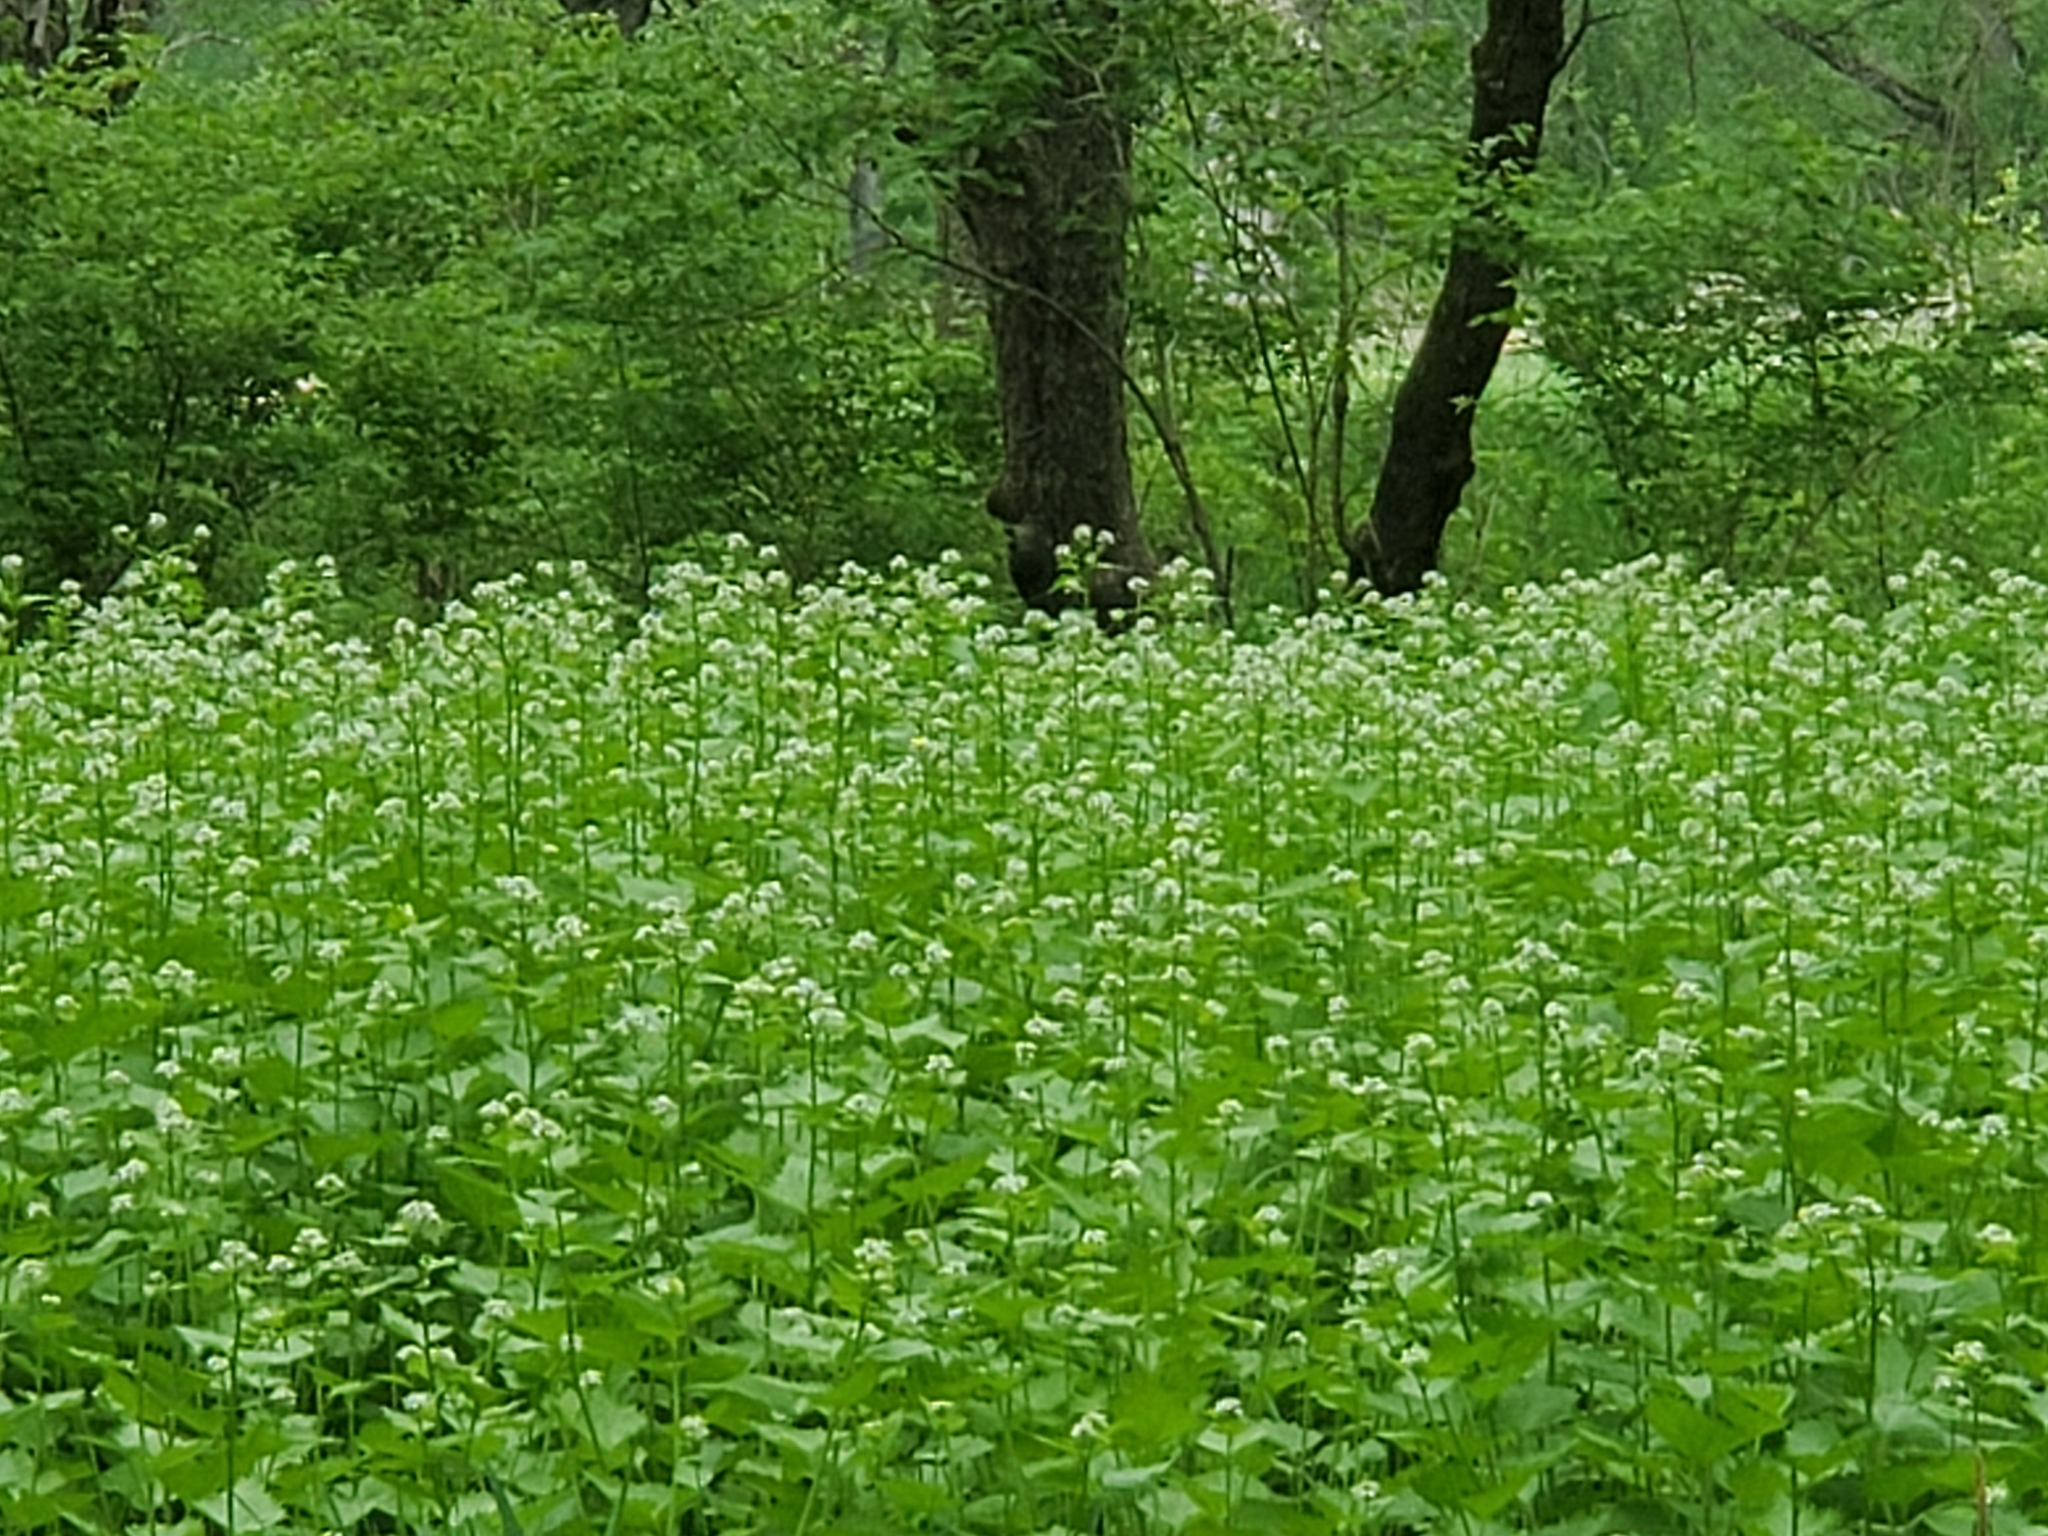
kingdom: Plantae
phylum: Tracheophyta
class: Magnoliopsida
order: Brassicales
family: Brassicaceae
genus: Alliaria
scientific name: Alliaria petiolata
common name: Garlic mustard
